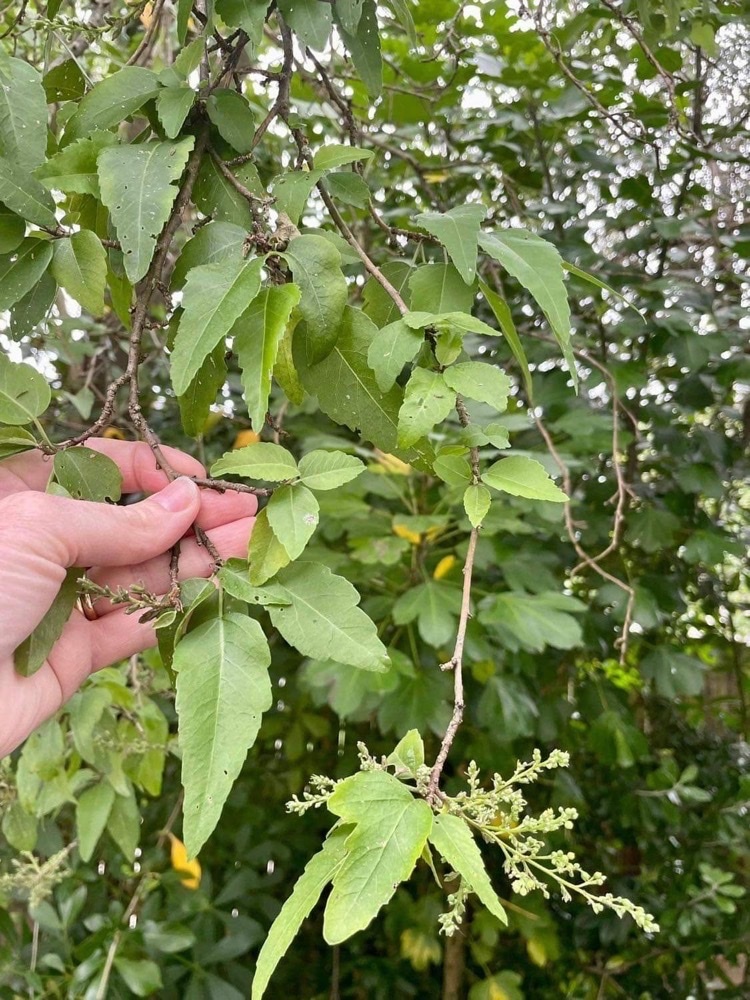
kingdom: Plantae
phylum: Tracheophyta
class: Magnoliopsida
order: Malvales
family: Malvaceae
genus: Plagianthus
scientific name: Plagianthus regius
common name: Manatu
